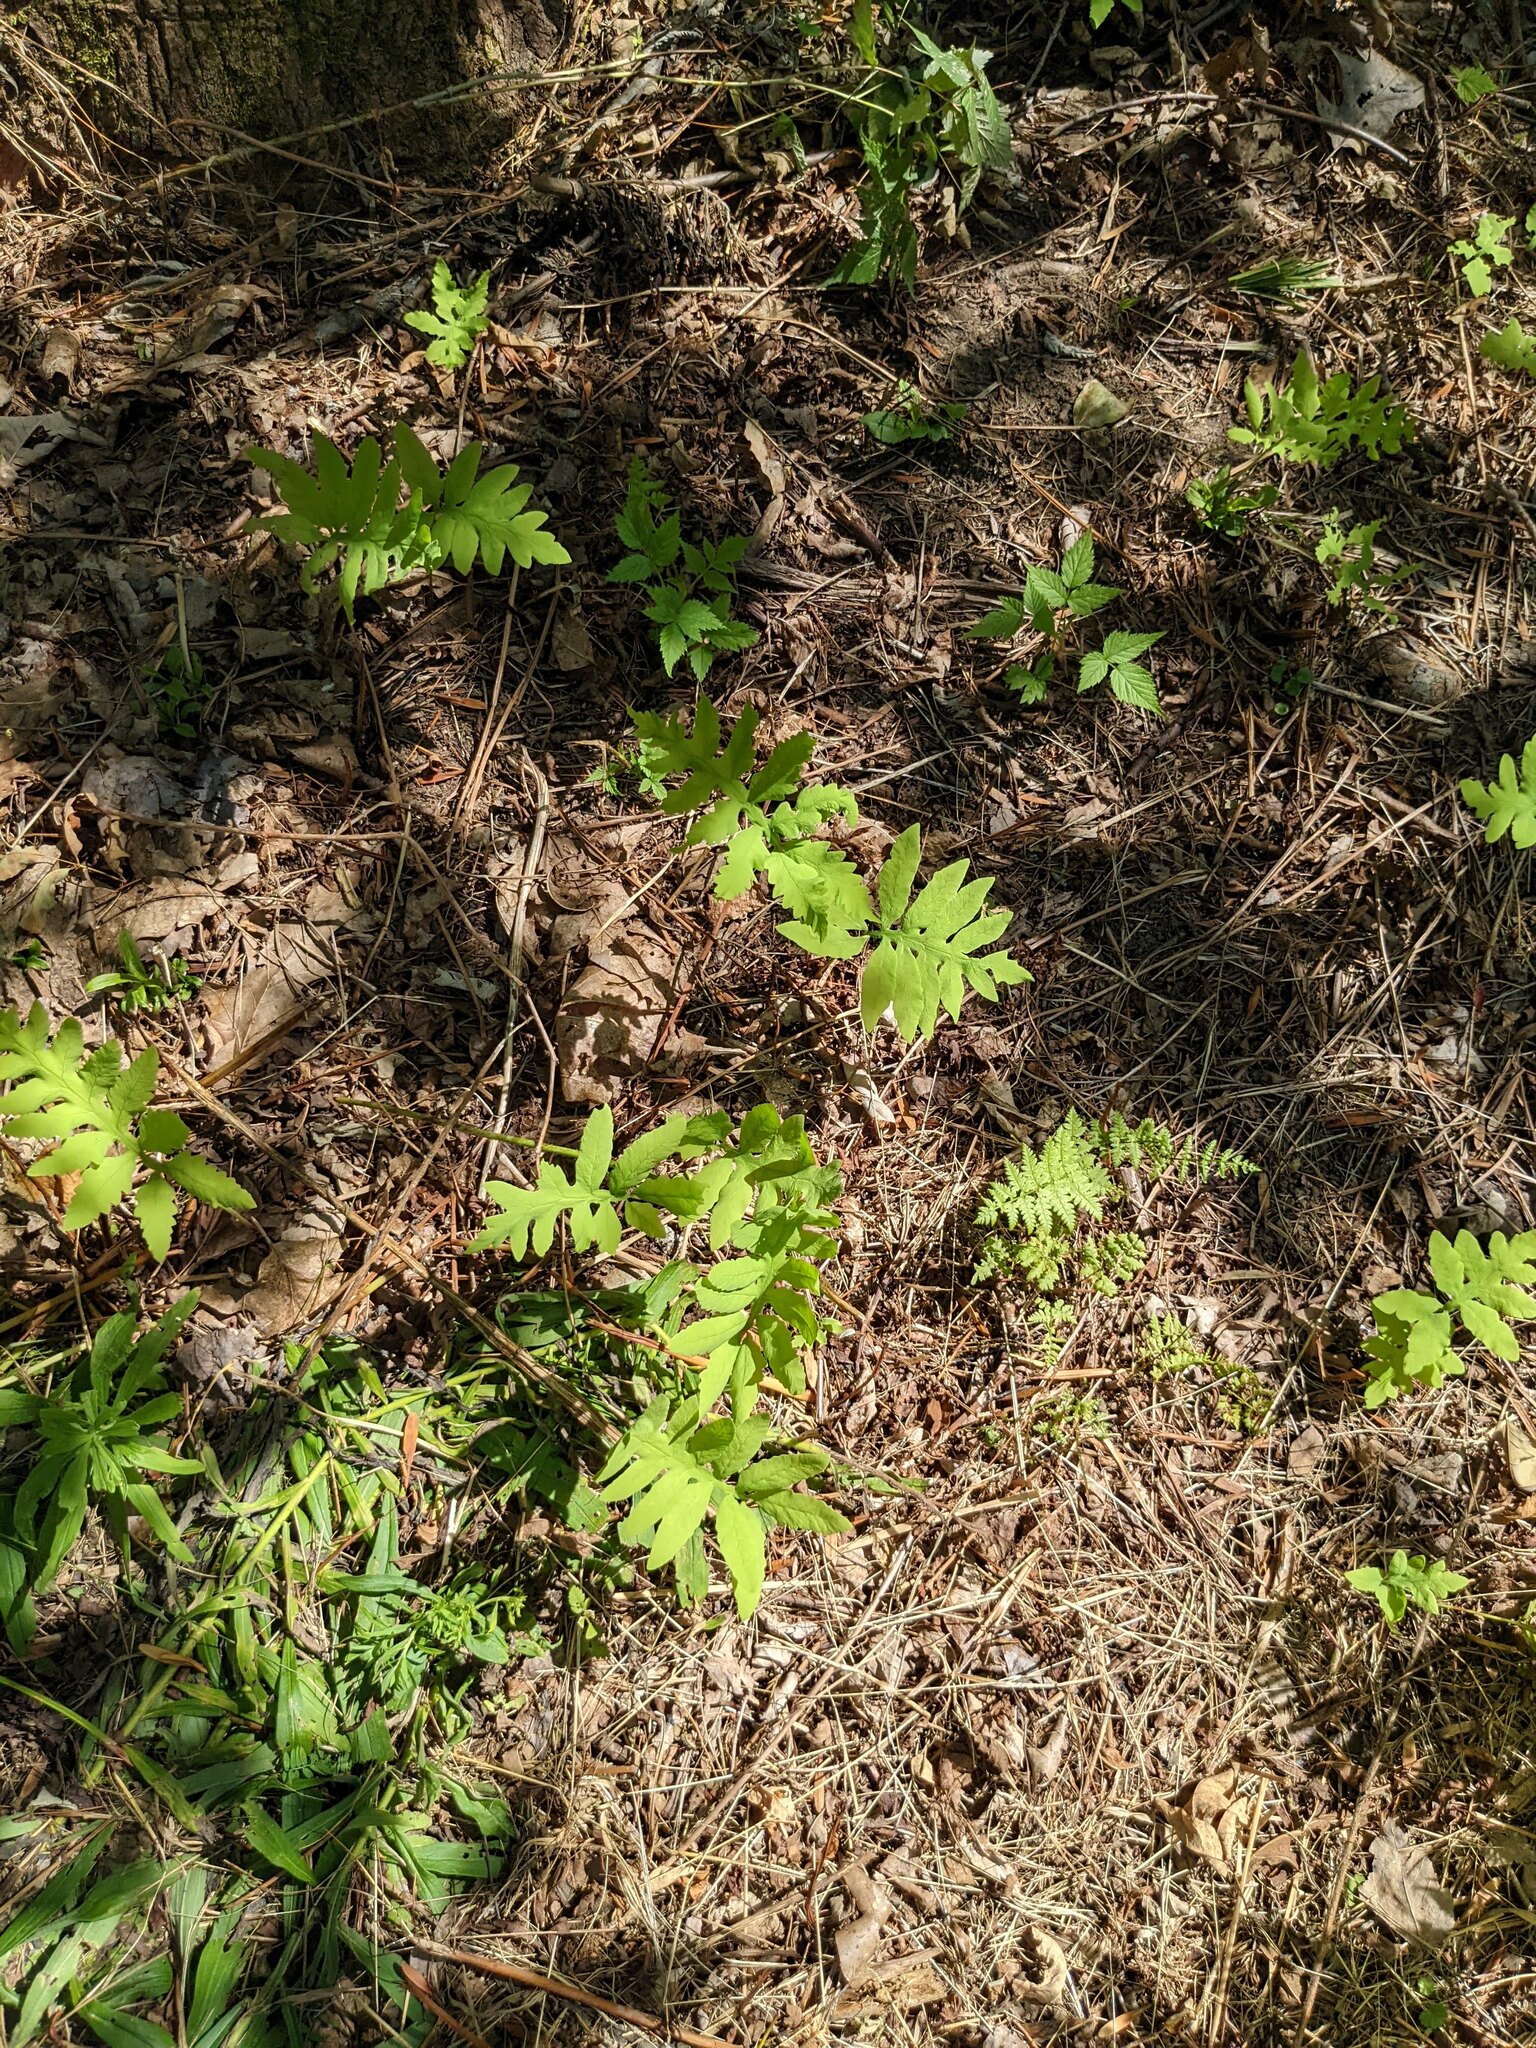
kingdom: Plantae
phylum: Tracheophyta
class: Polypodiopsida
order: Polypodiales
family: Onocleaceae
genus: Onoclea
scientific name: Onoclea sensibilis
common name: Sensitive fern
